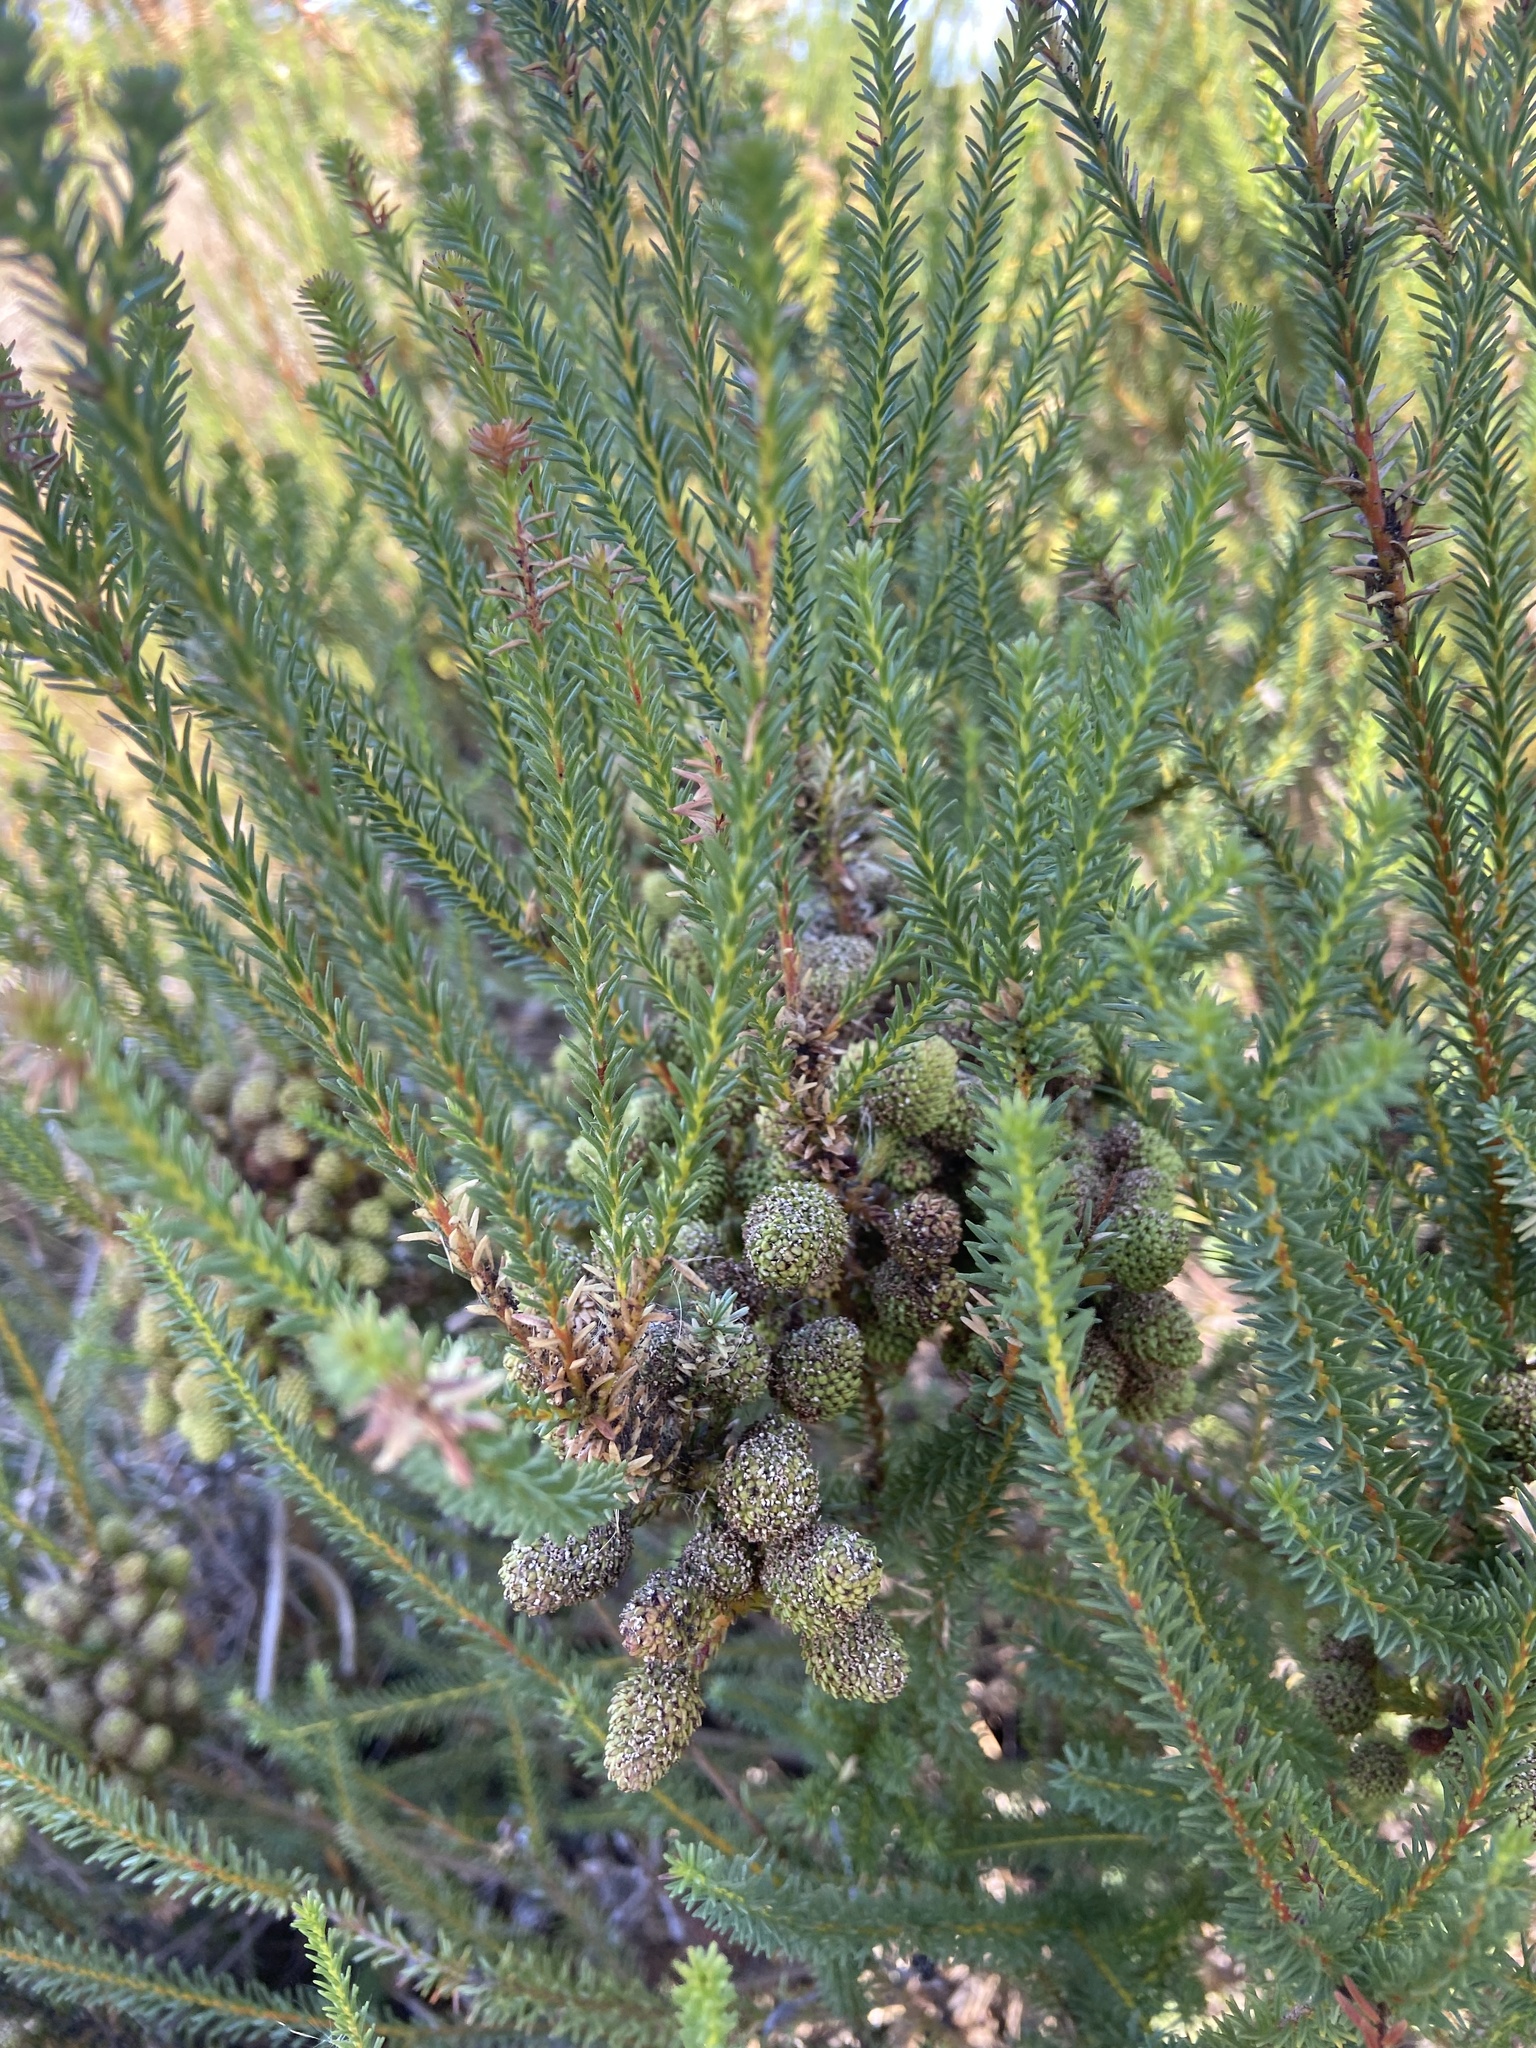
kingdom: Plantae
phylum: Tracheophyta
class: Magnoliopsida
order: Bruniales
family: Bruniaceae
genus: Berzelia
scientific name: Berzelia abrotanoides
